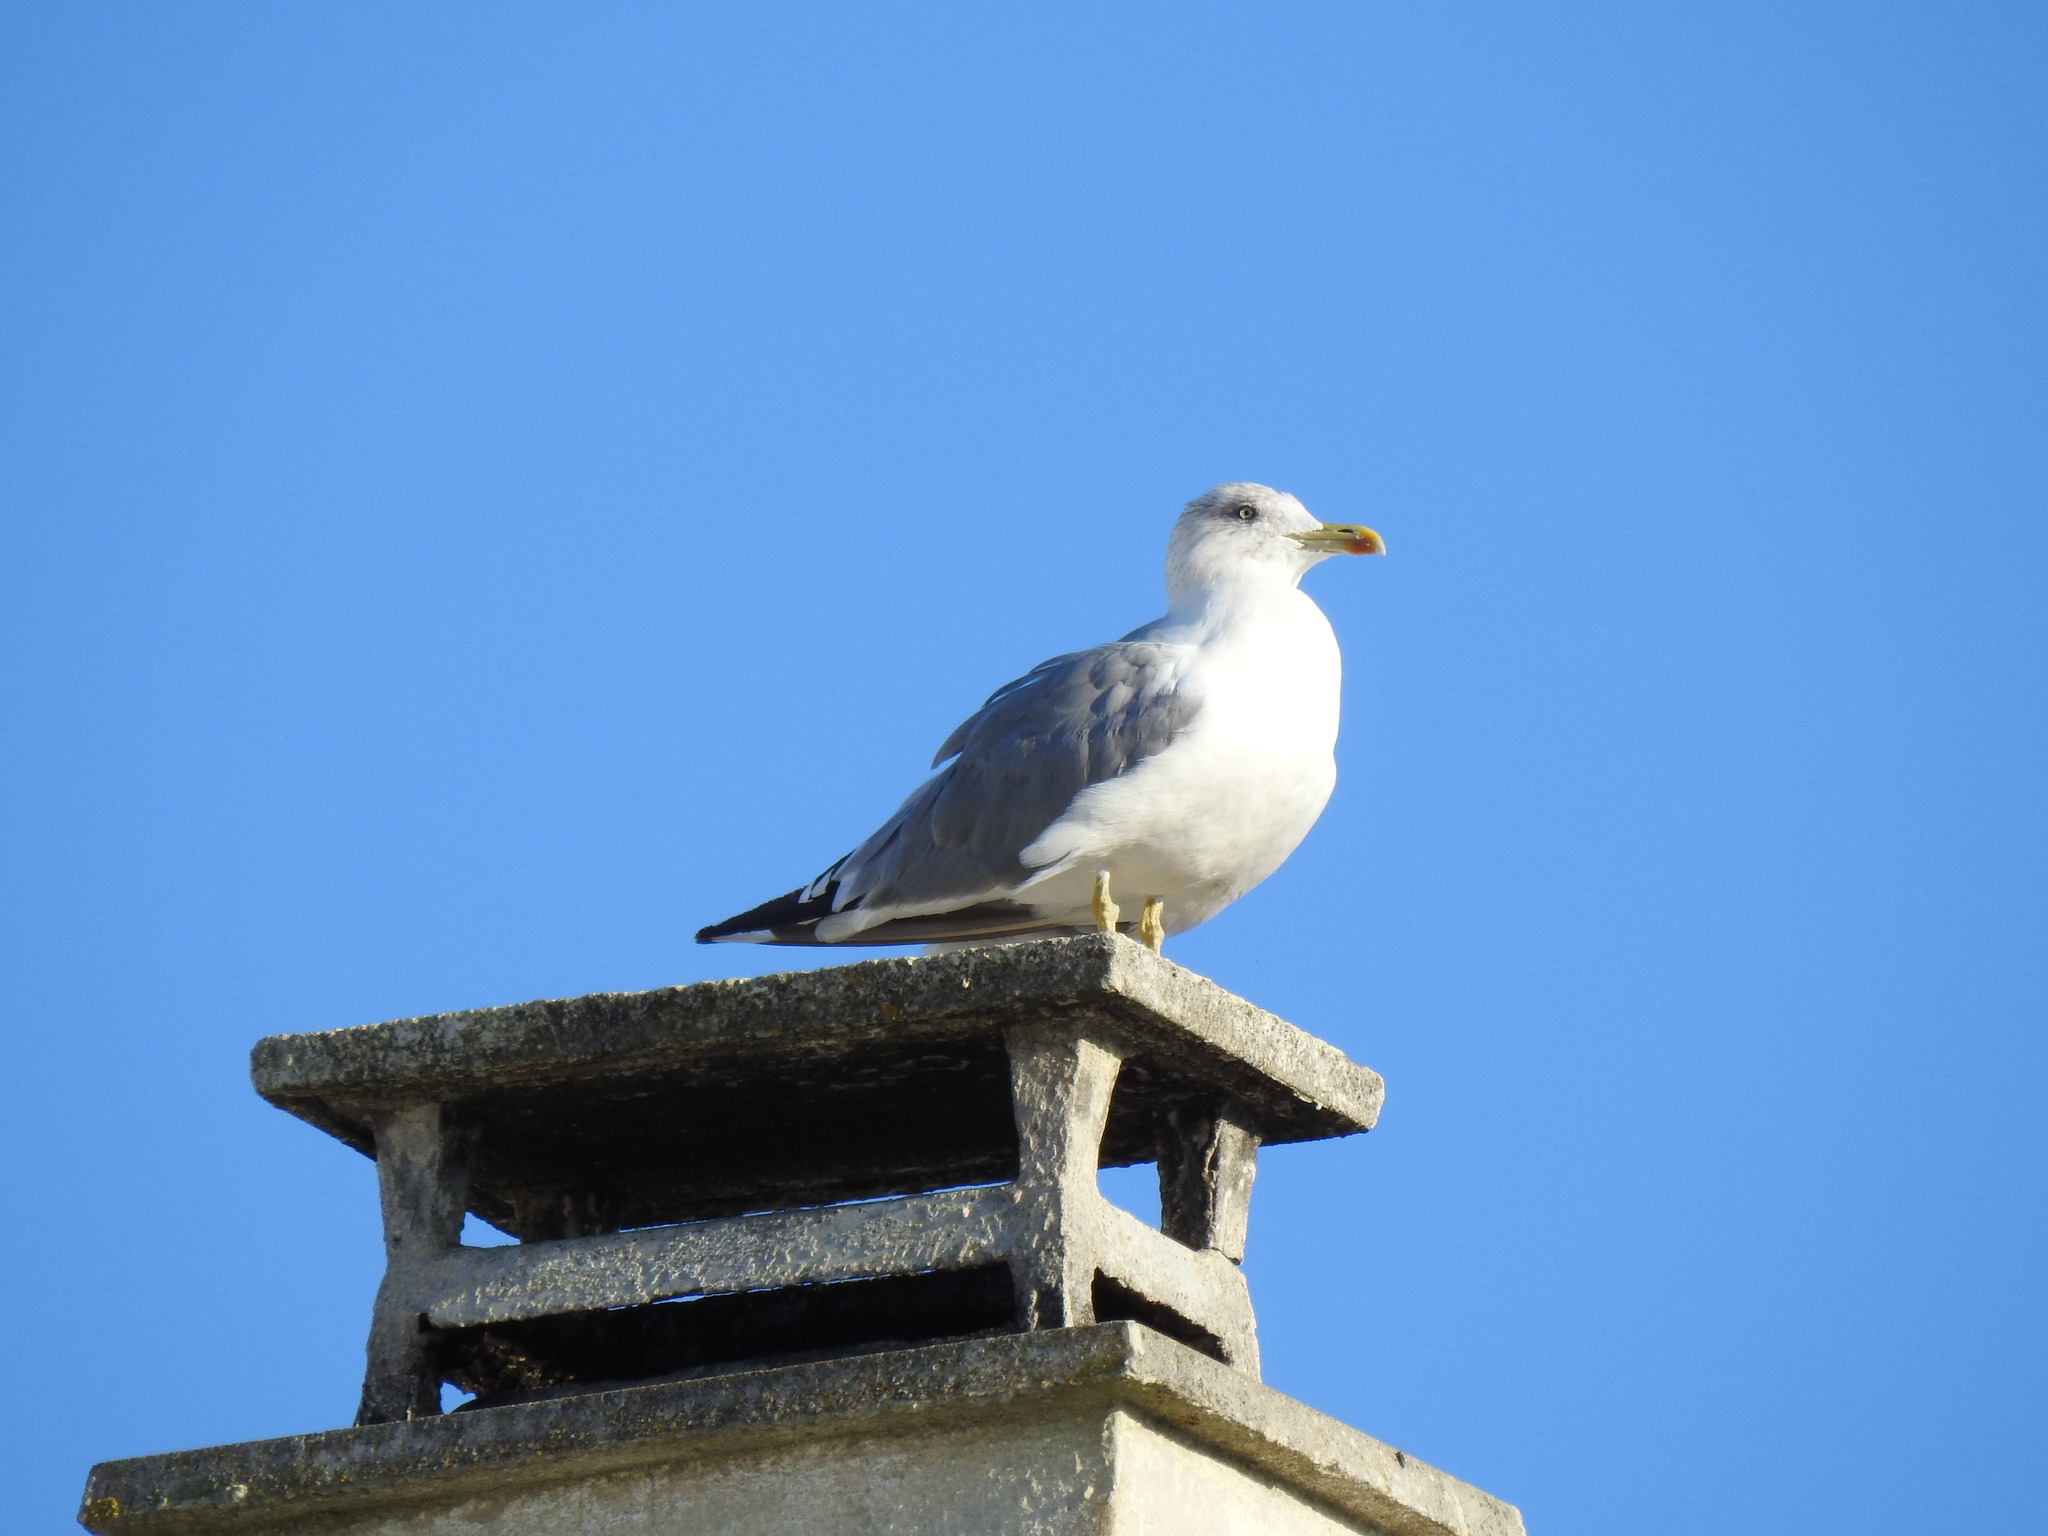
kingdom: Animalia
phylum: Chordata
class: Aves
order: Charadriiformes
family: Laridae
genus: Larus
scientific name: Larus michahellis
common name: Yellow-legged gull
